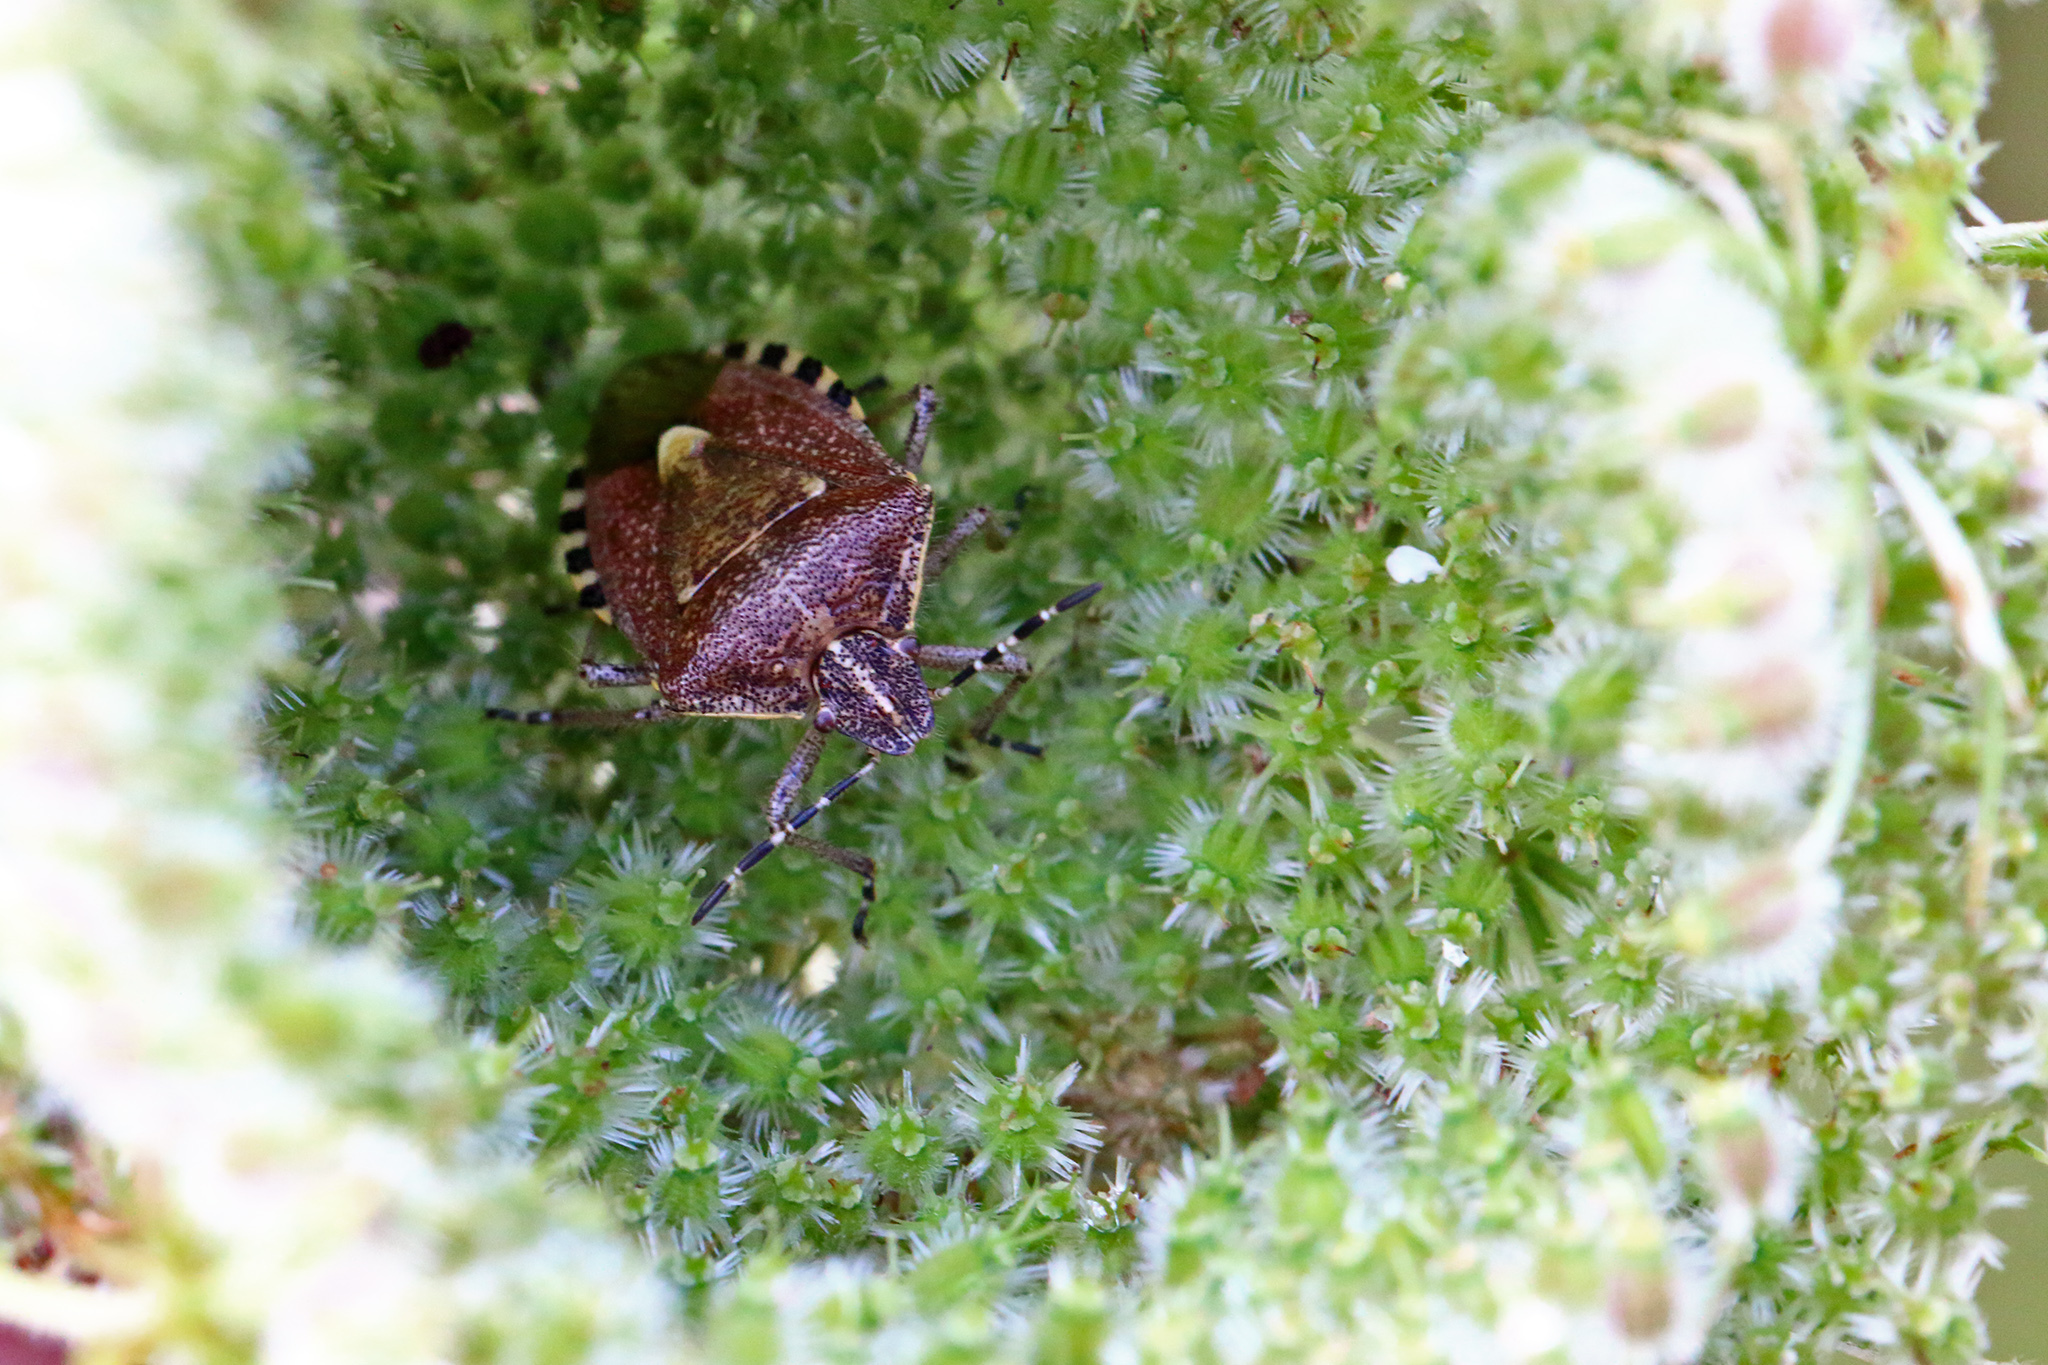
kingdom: Animalia
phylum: Arthropoda
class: Insecta
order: Hemiptera
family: Pentatomidae
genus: Dolycoris
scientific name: Dolycoris baccarum
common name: Sloe bug
